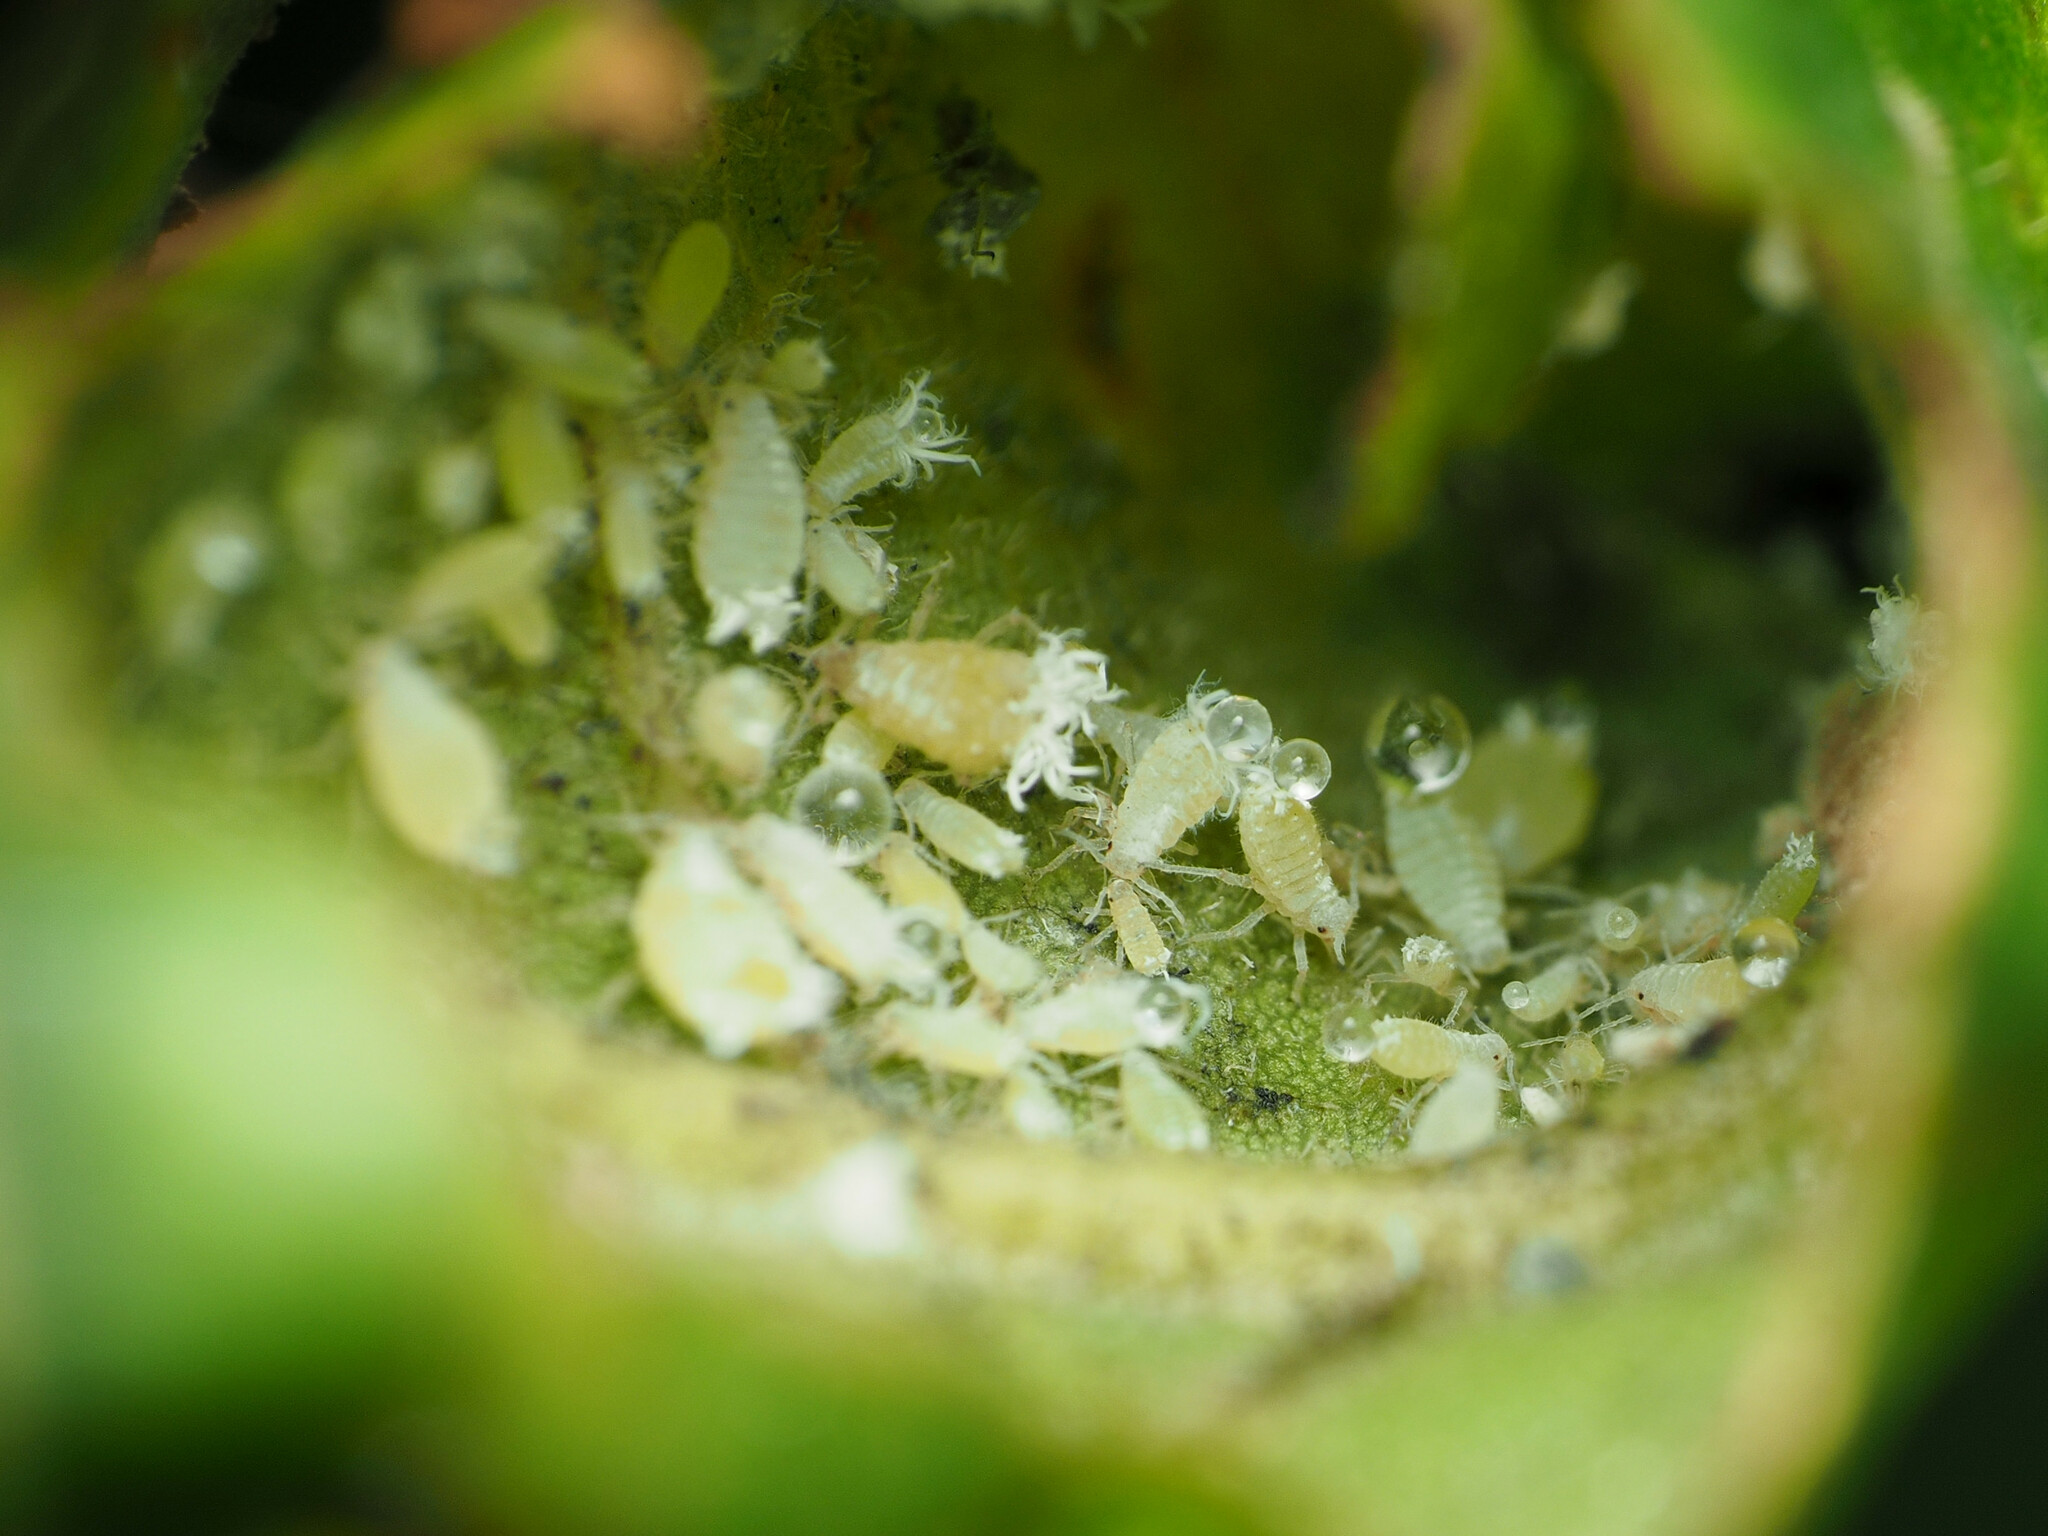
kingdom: Animalia
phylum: Arthropoda
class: Insecta
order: Hemiptera
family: Aphididae
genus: Prociphilus
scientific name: Prociphilus fraxinifolii
